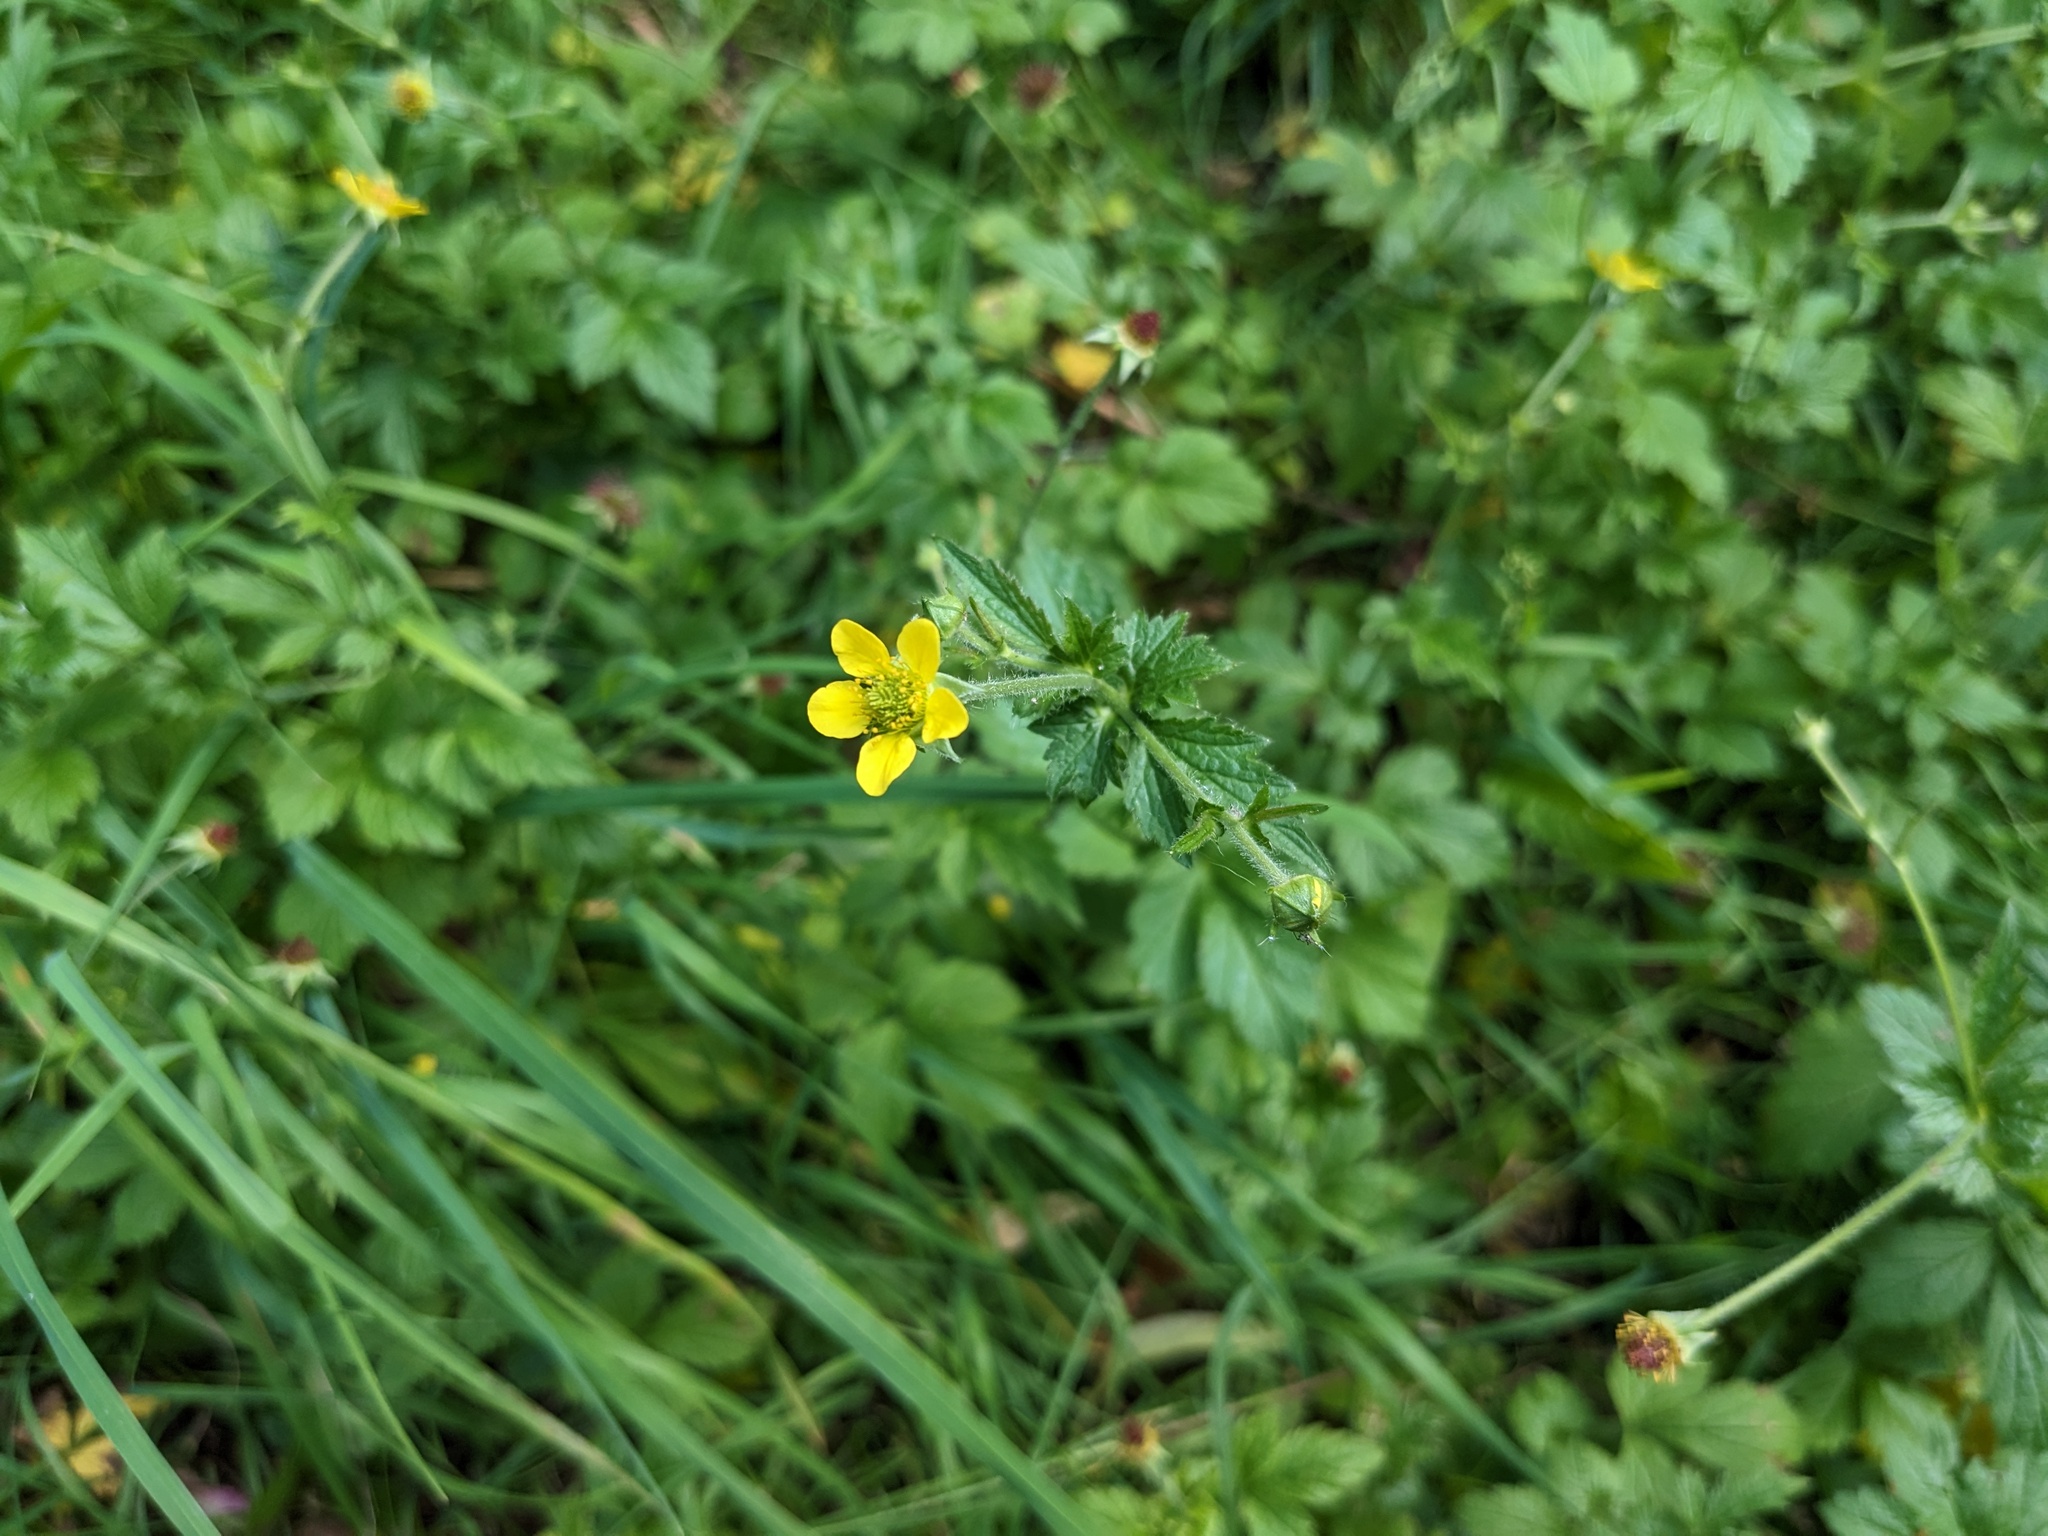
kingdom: Plantae
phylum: Tracheophyta
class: Magnoliopsida
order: Rosales
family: Rosaceae
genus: Geum
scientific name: Geum urbanum
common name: Wood avens
